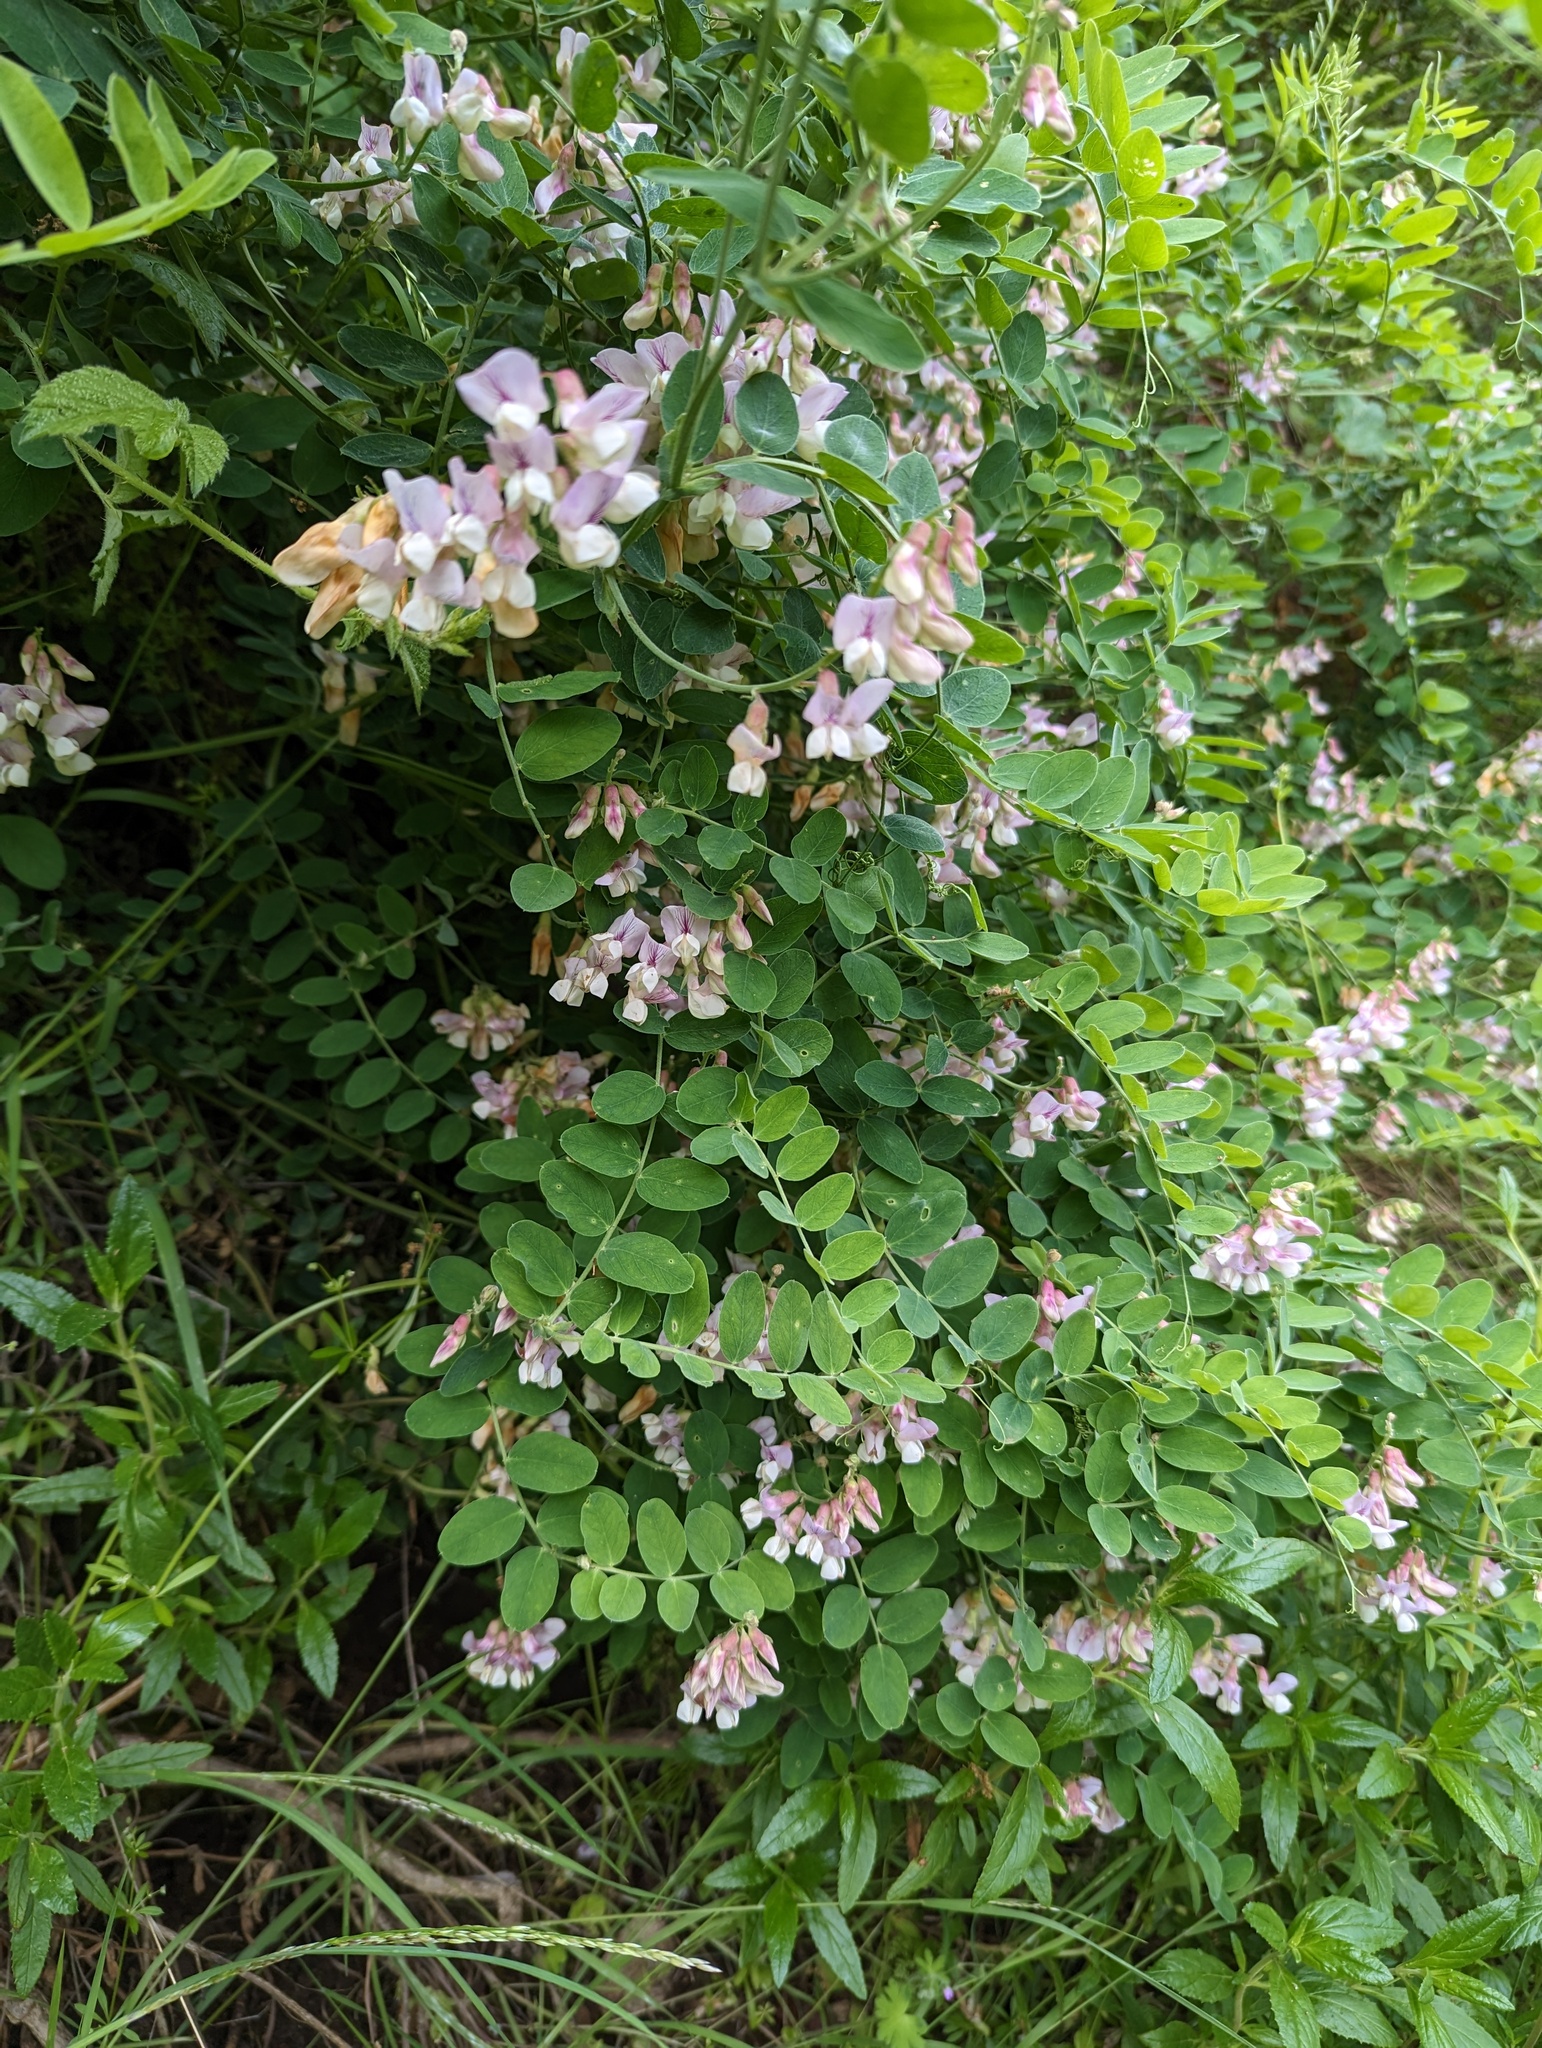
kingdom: Plantae
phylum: Tracheophyta
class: Magnoliopsida
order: Fabales
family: Fabaceae
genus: Lathyrus
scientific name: Lathyrus vestitus
